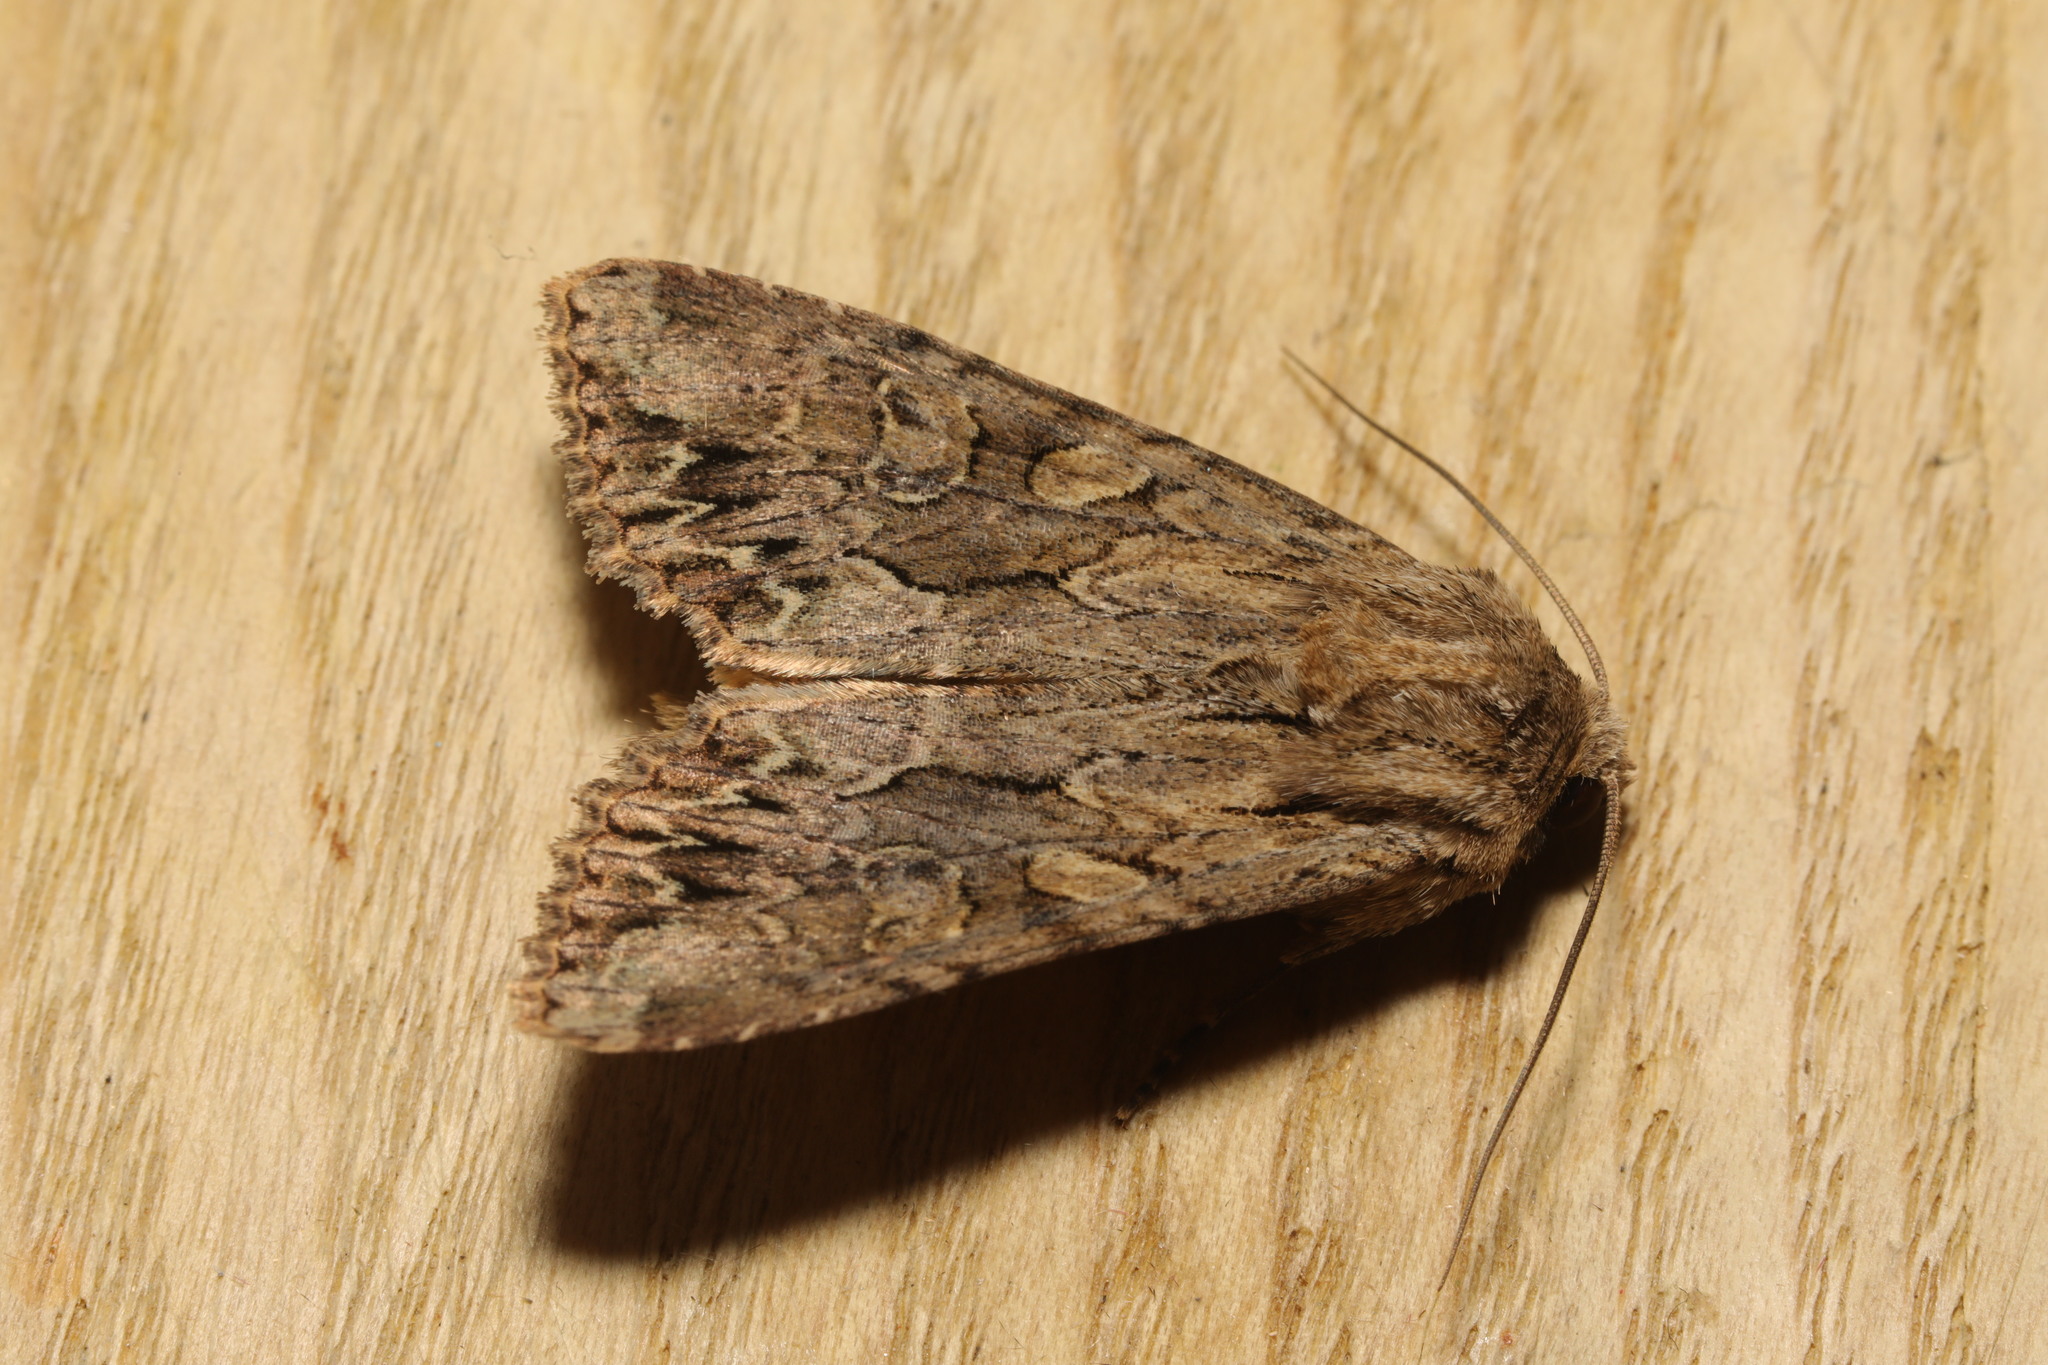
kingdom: Animalia
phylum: Arthropoda
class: Insecta
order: Lepidoptera
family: Noctuidae
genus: Apamea
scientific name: Apamea monoglypha
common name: Dark arches
